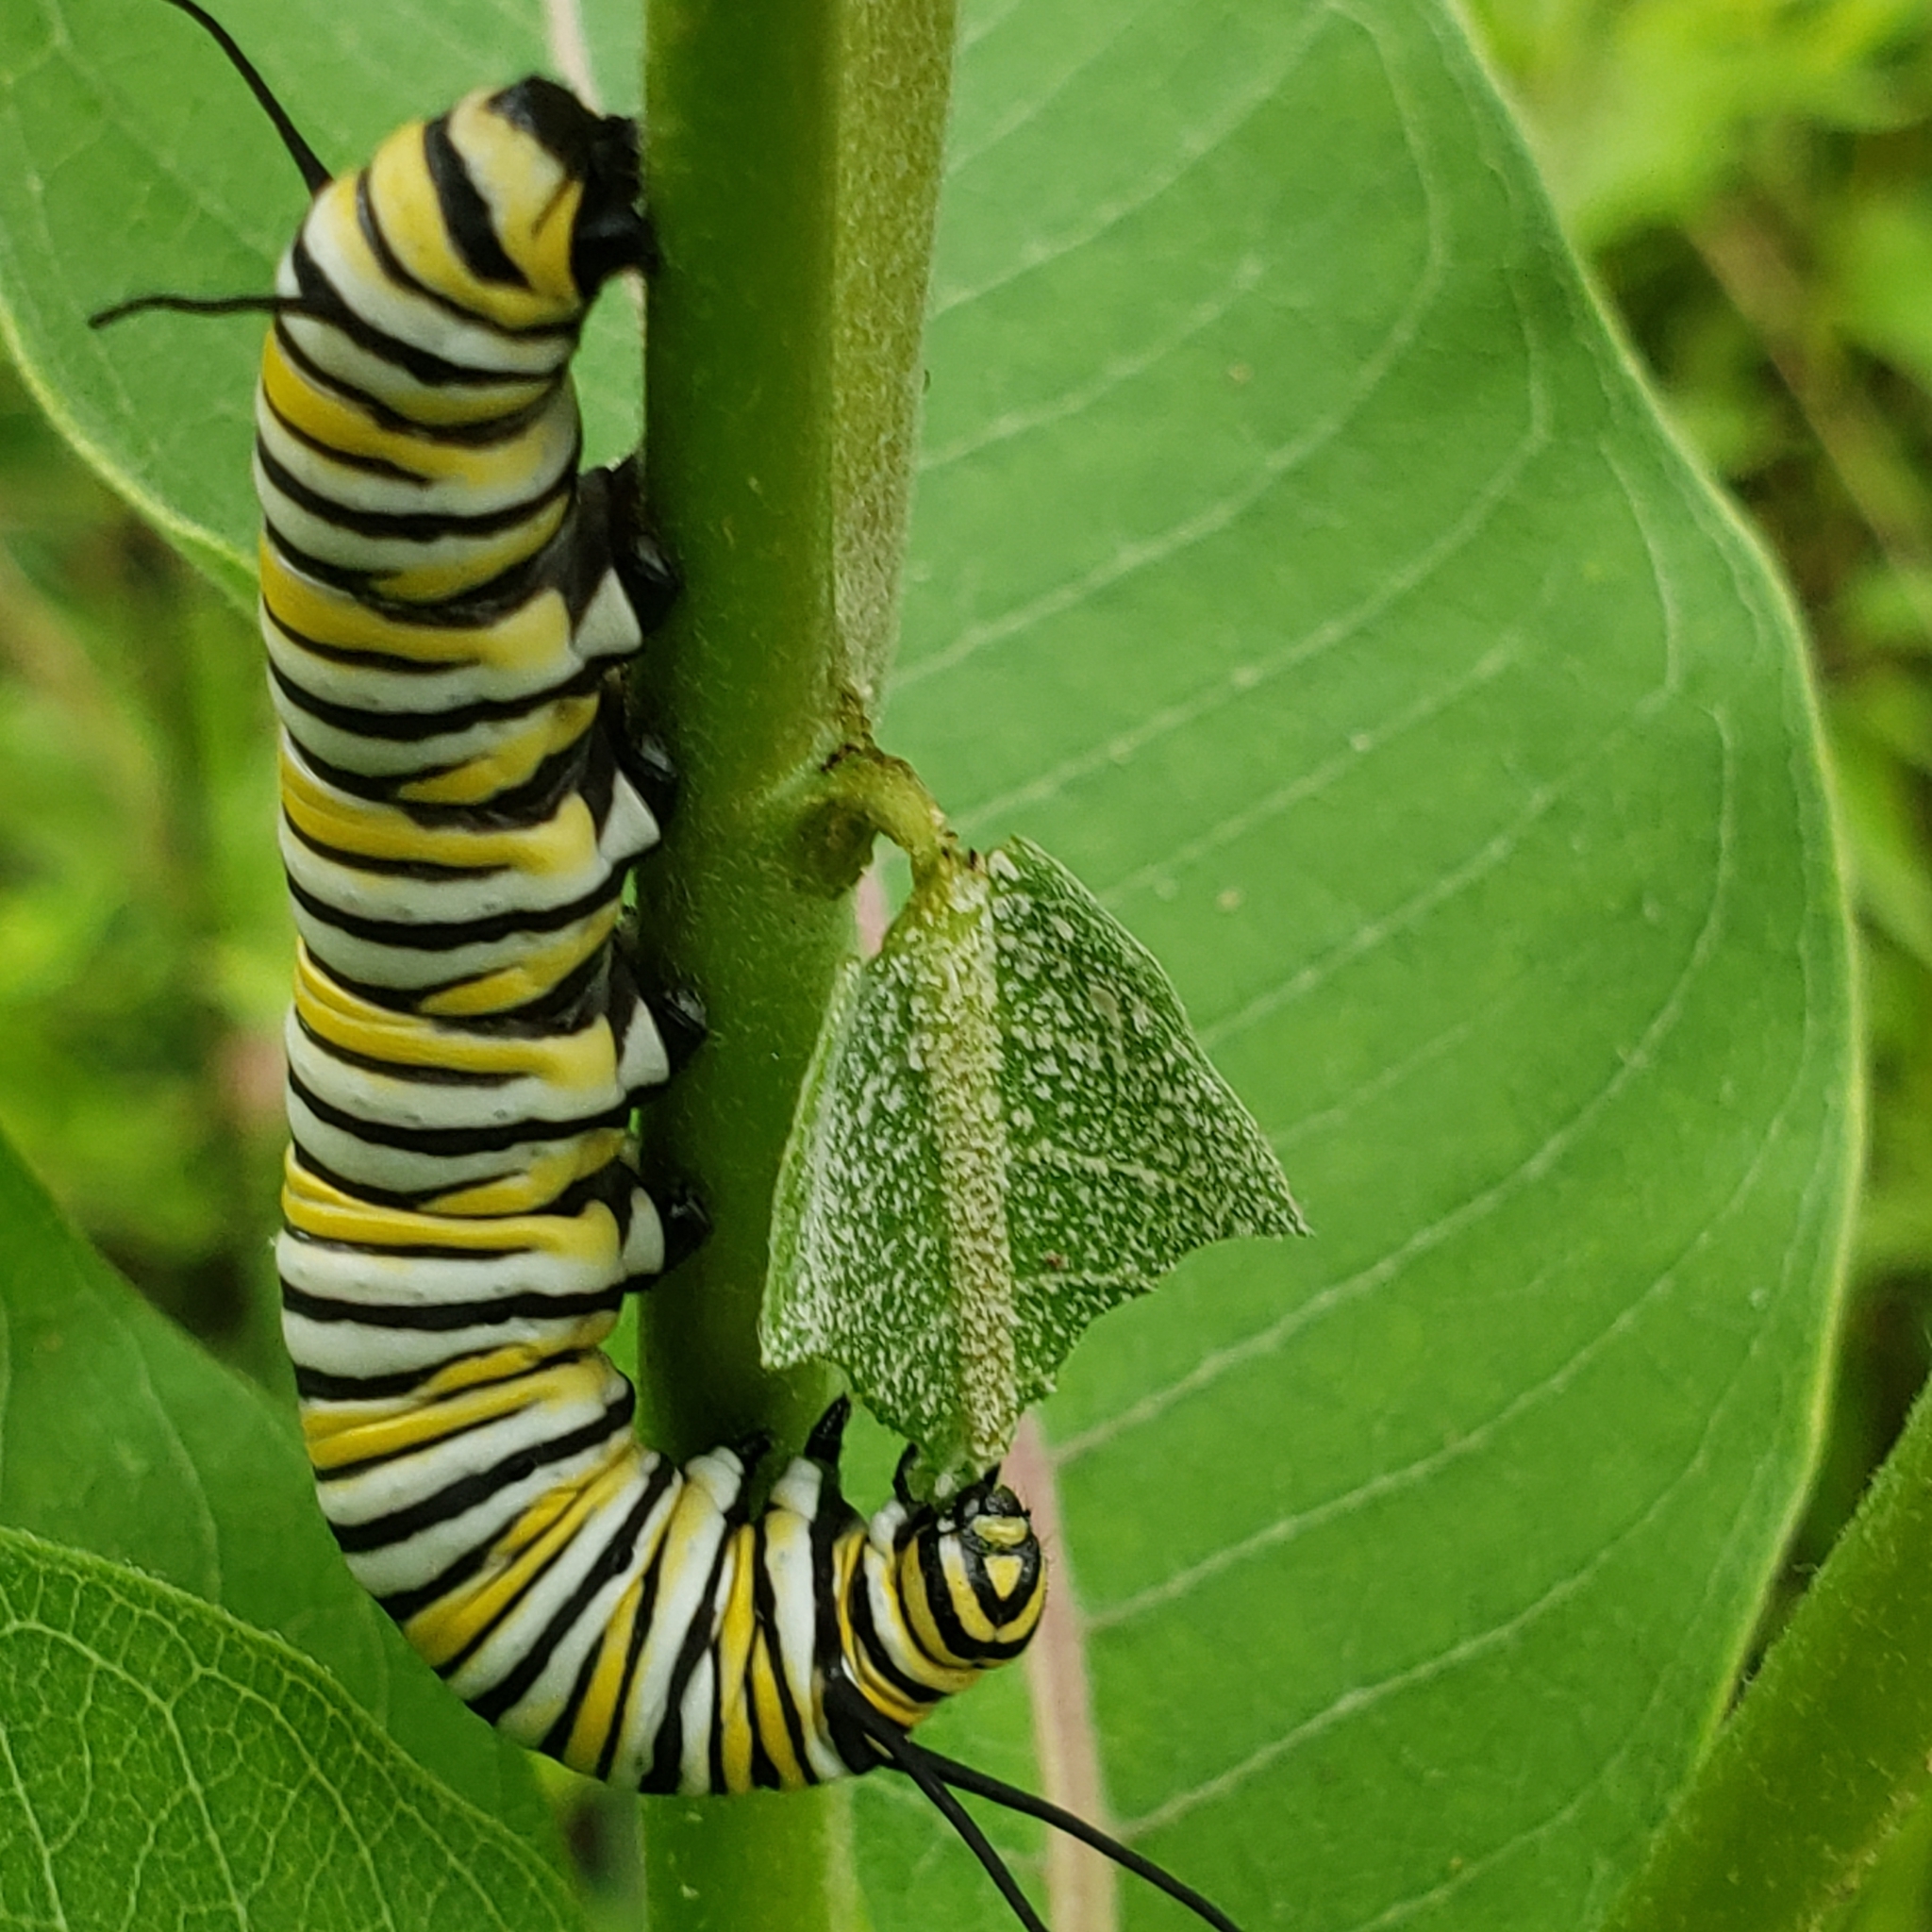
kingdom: Animalia
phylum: Arthropoda
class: Insecta
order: Lepidoptera
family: Nymphalidae
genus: Danaus
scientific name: Danaus plexippus
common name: Monarch
